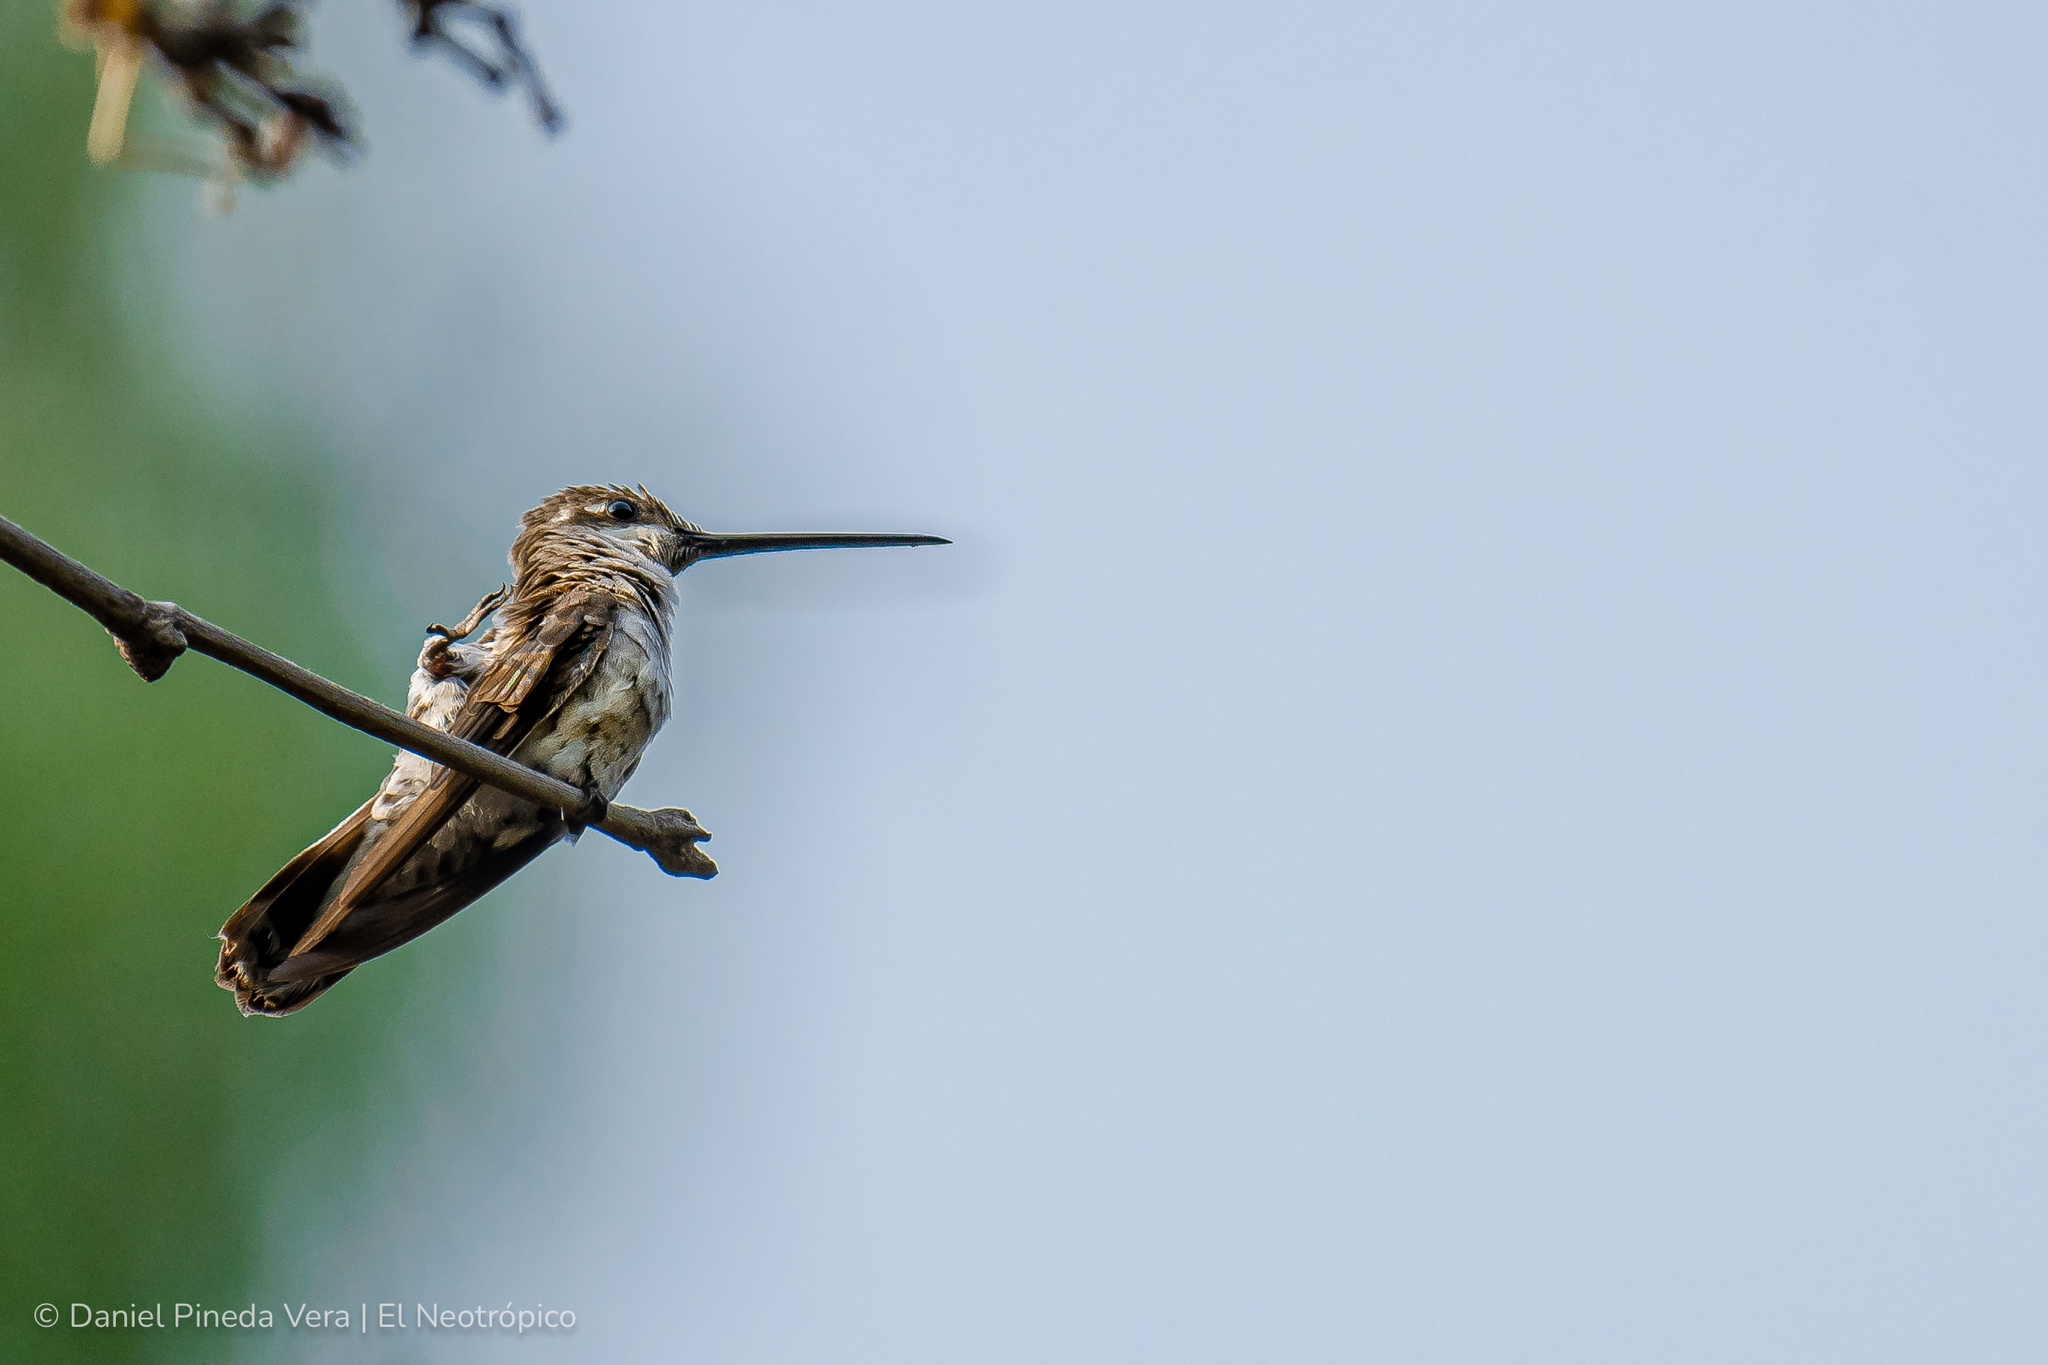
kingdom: Animalia
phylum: Chordata
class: Aves
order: Apodiformes
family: Trochilidae
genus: Heliomaster
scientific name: Heliomaster constantii
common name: Plain-capped starthroat
